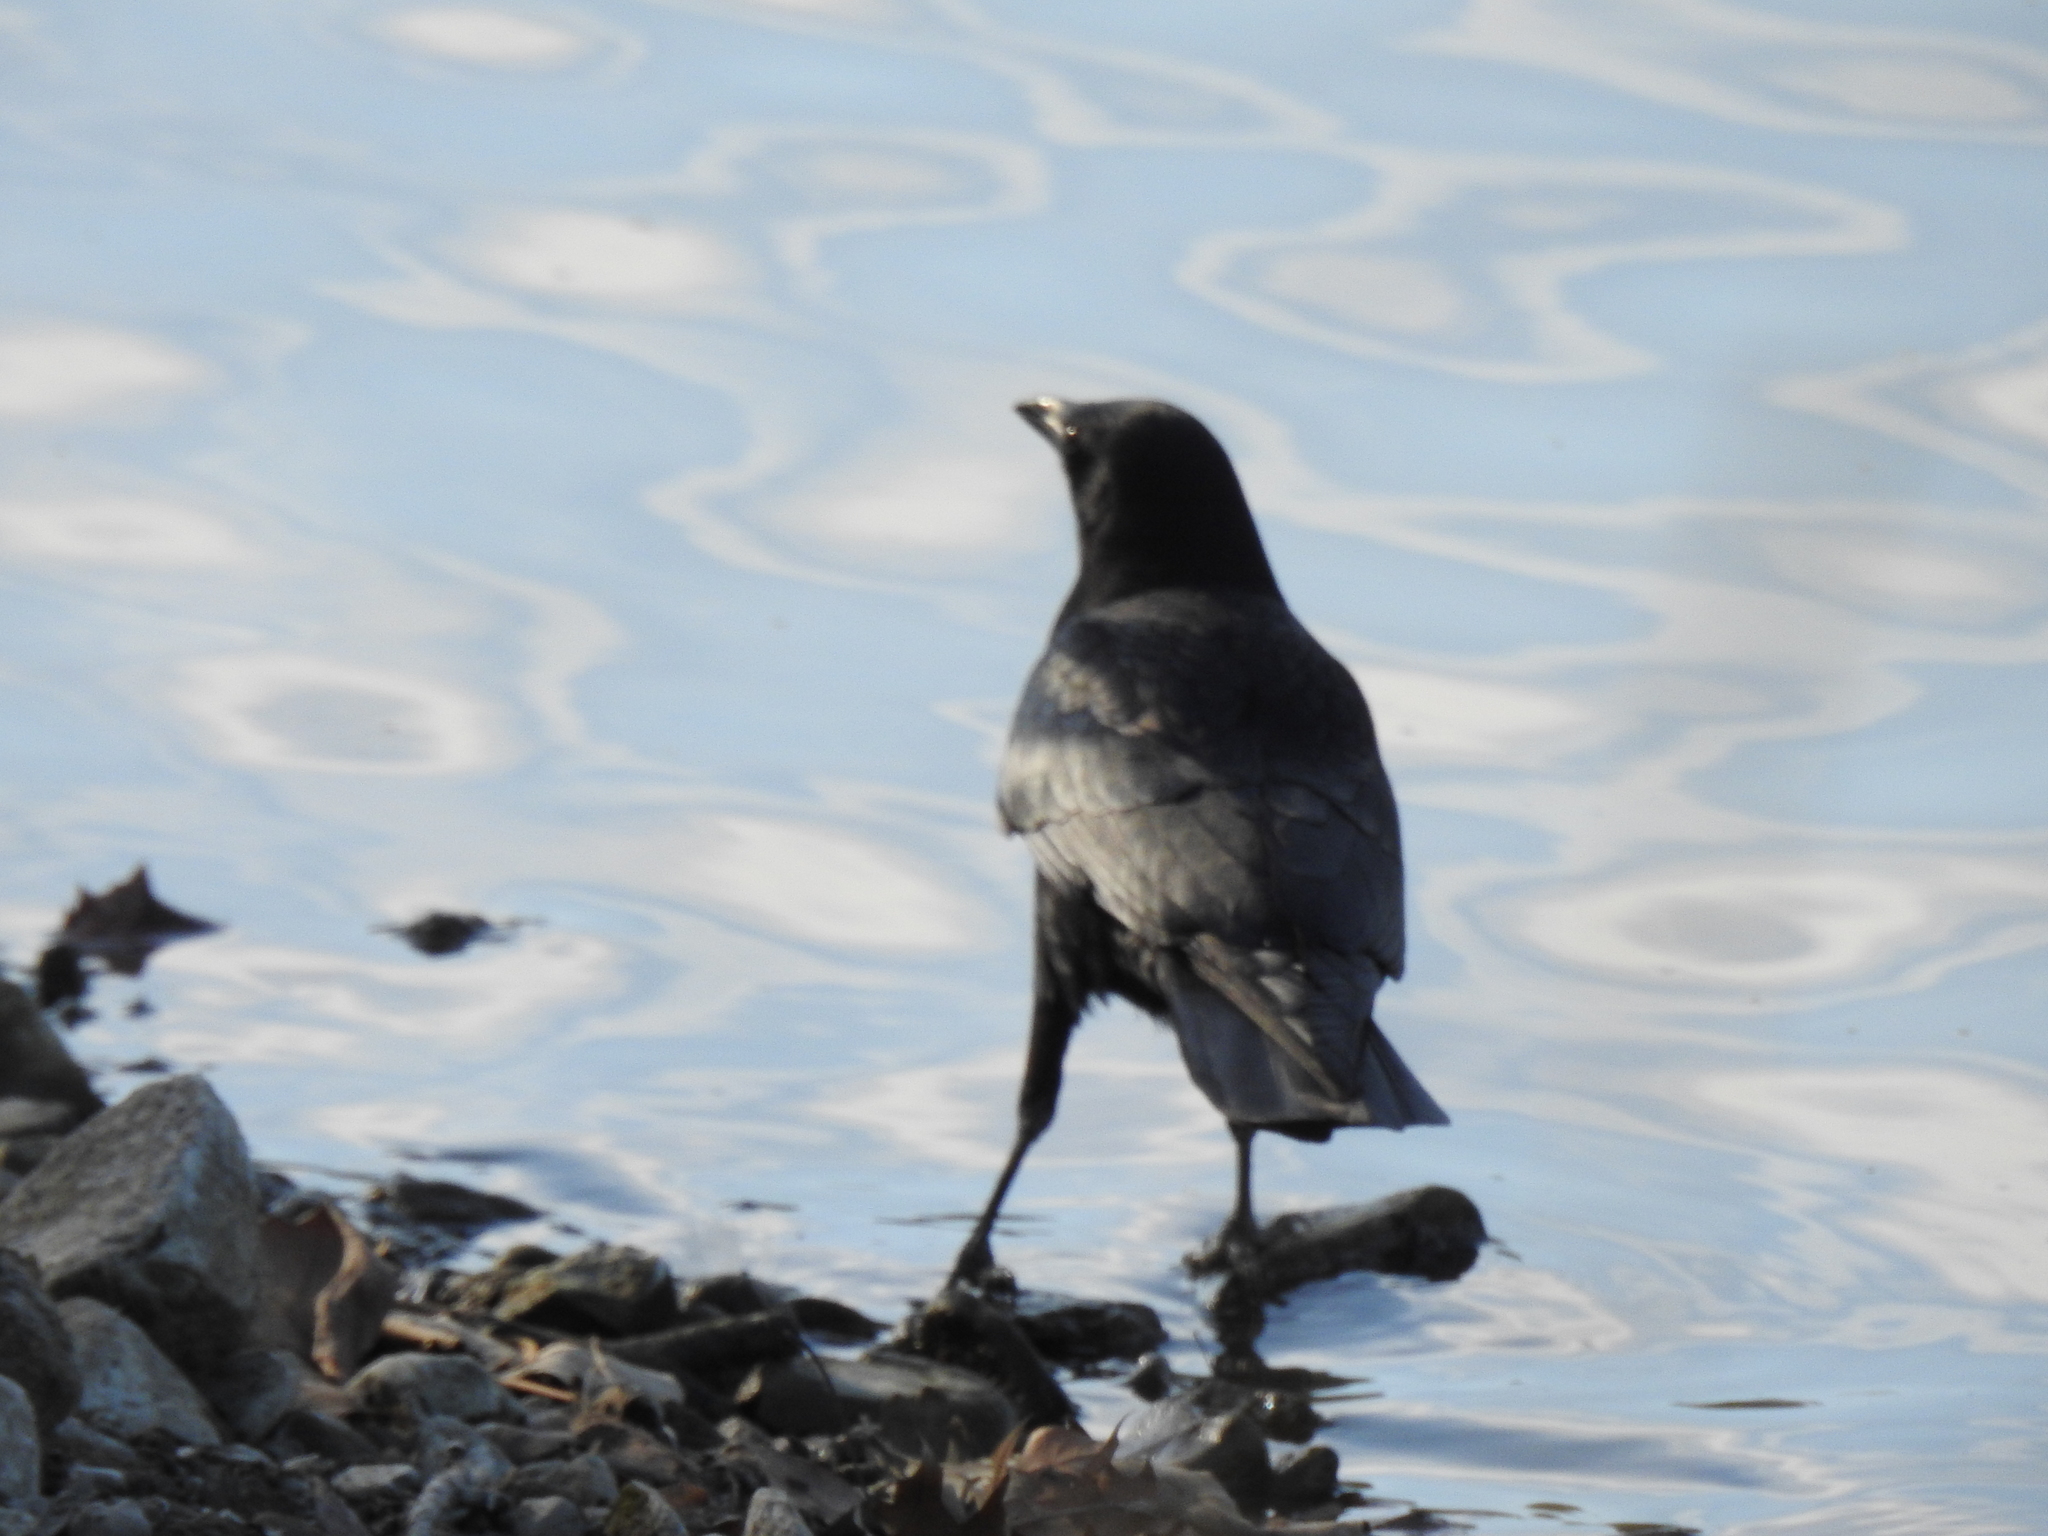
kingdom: Animalia
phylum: Chordata
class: Aves
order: Passeriformes
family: Corvidae
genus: Corvus
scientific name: Corvus brachyrhynchos
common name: American crow
